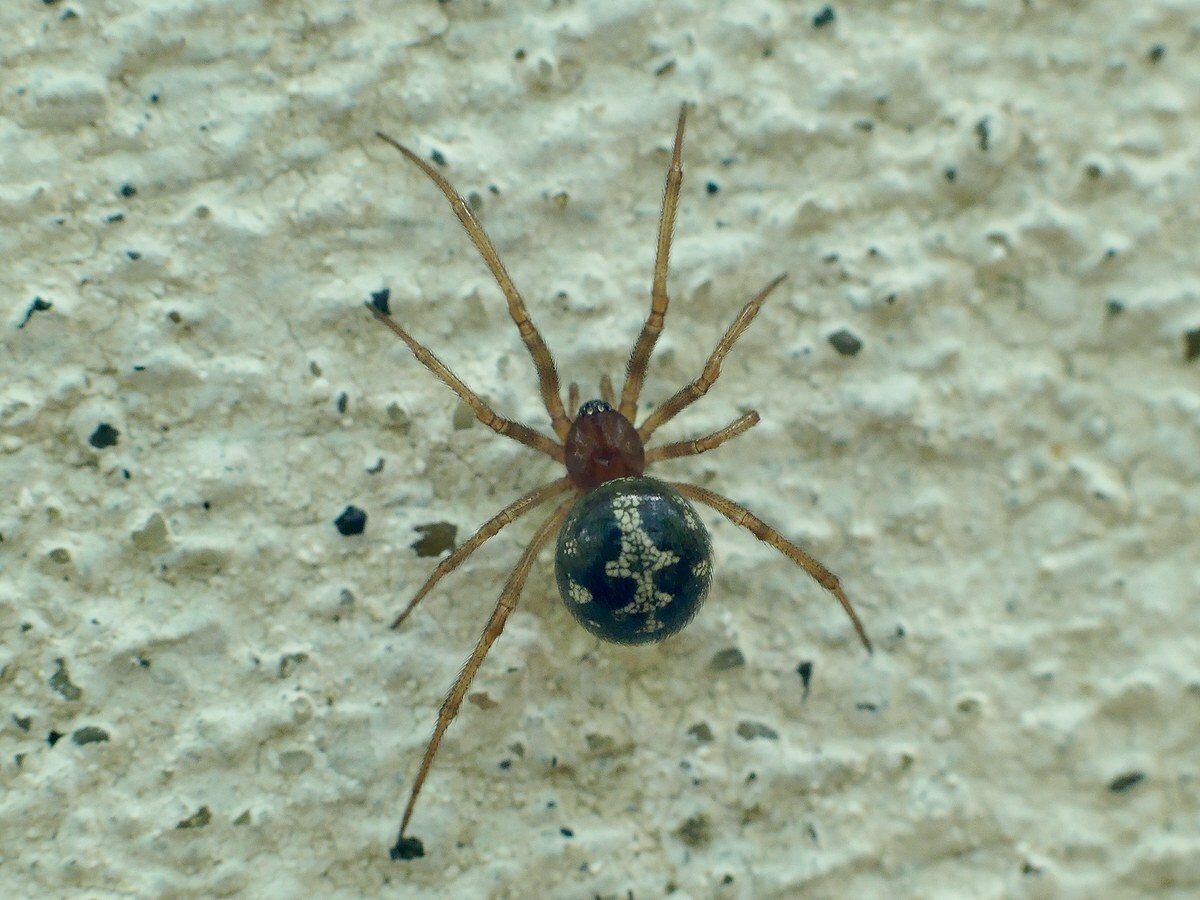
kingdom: Animalia
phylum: Arthropoda
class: Arachnida
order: Araneae
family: Theridiidae
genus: Steatoda
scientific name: Steatoda triangulosa
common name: Triangulate bud spider
